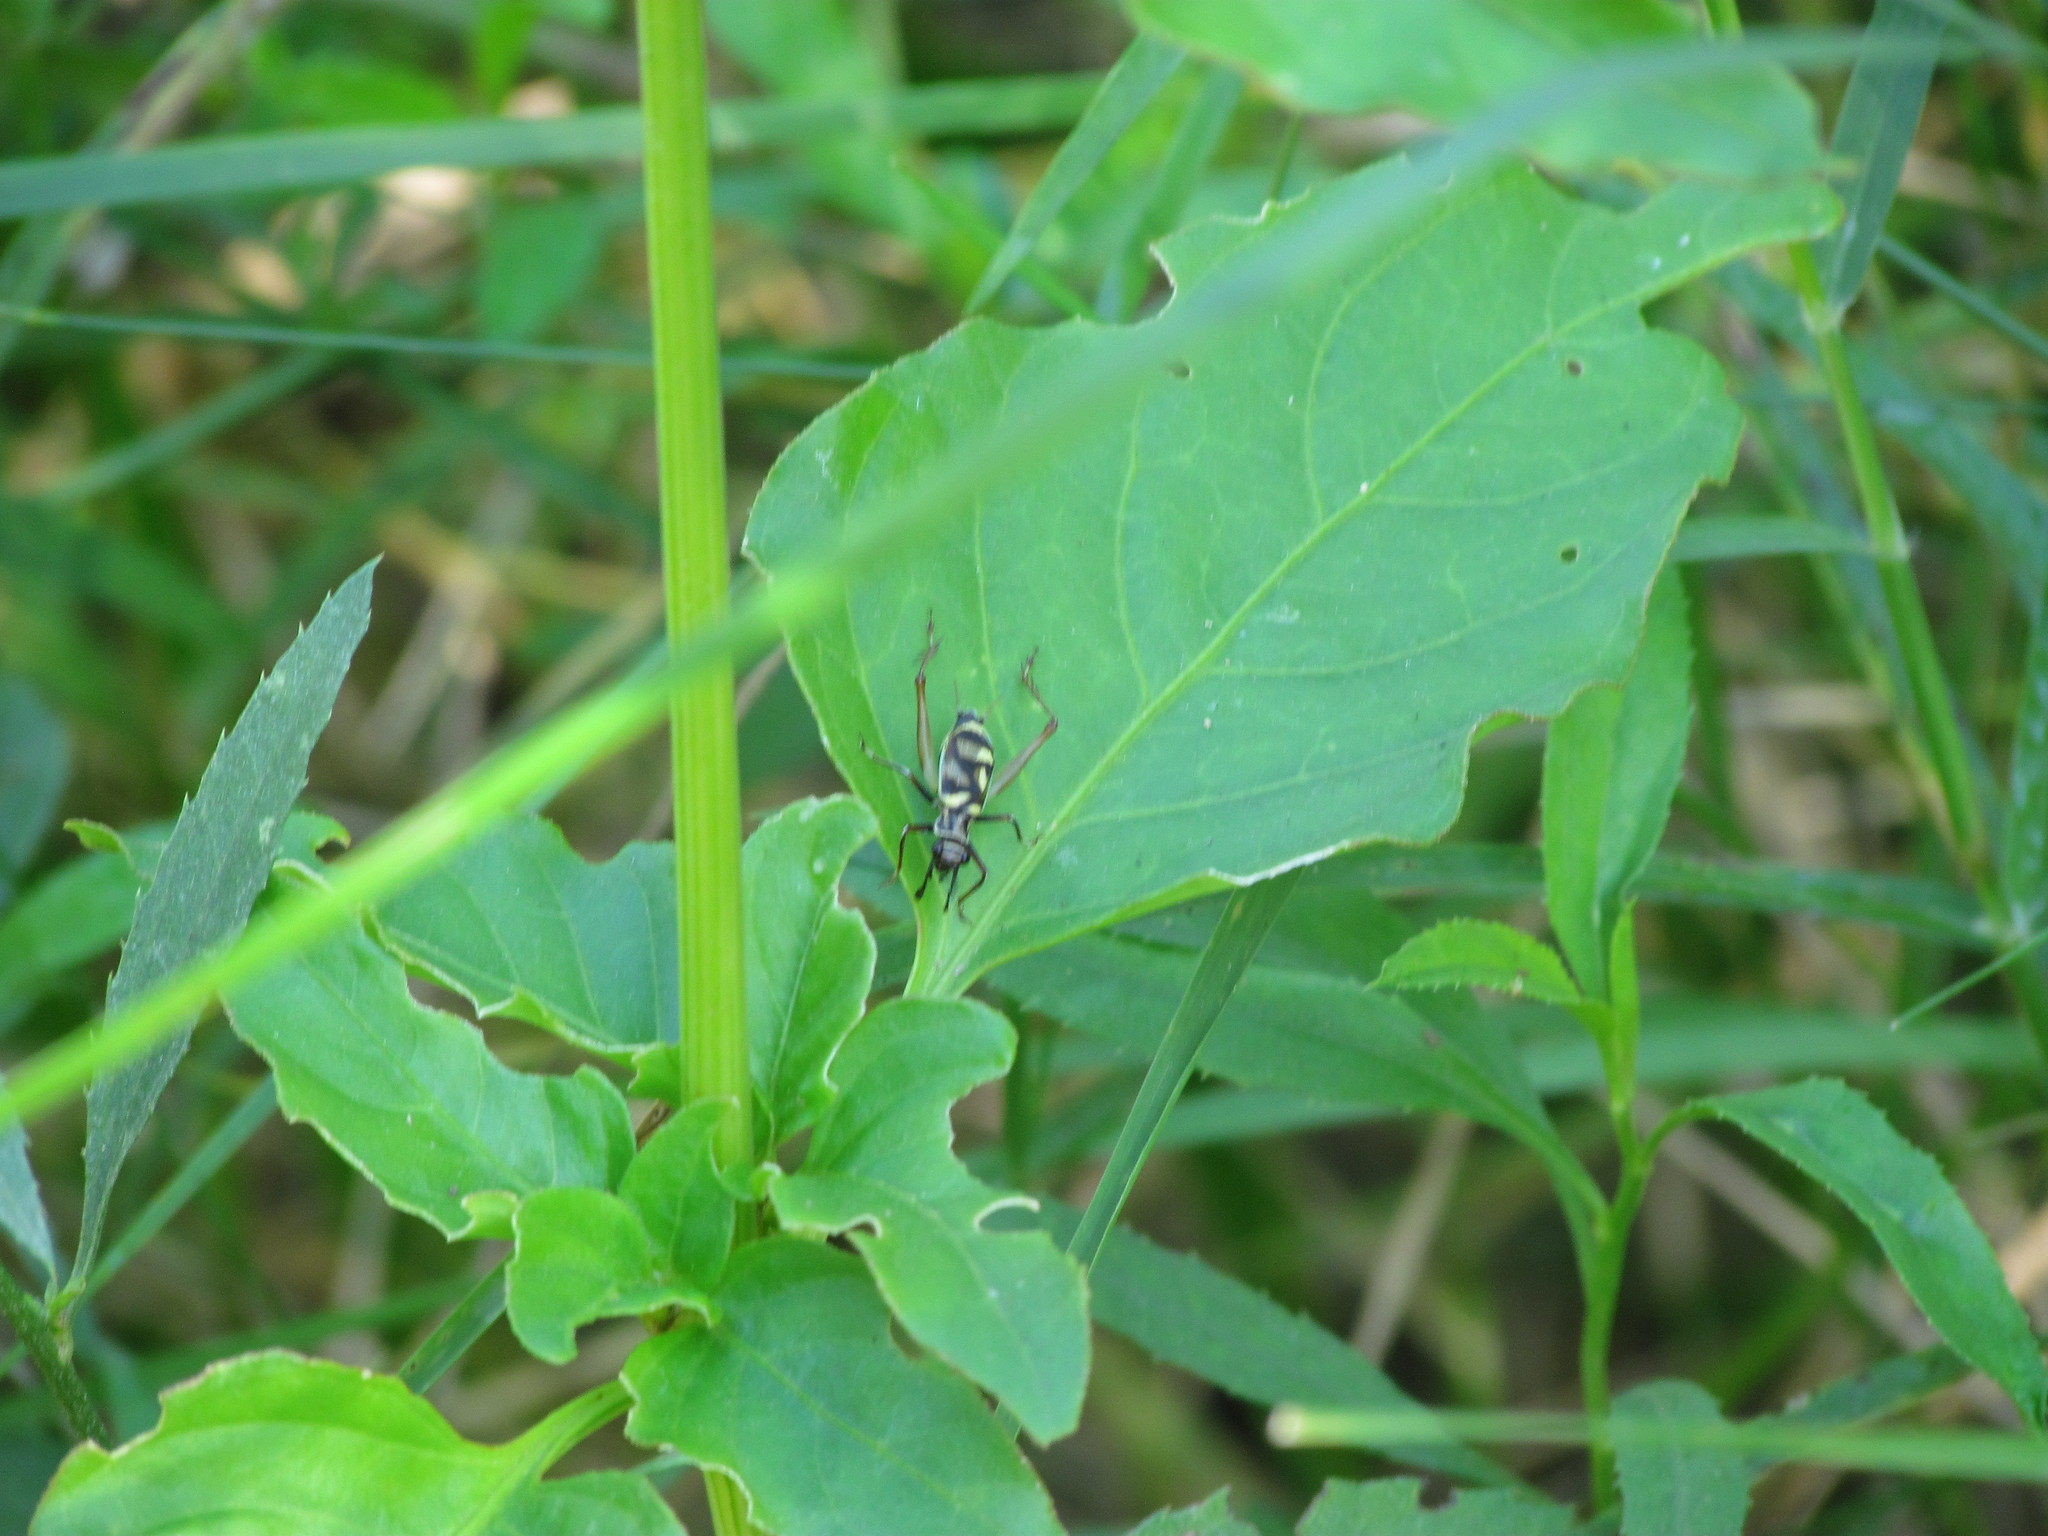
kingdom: Animalia
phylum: Arthropoda
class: Insecta
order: Orthoptera
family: Trigonidiidae
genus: Phylloscyrtus
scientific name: Phylloscyrtus amoenus
